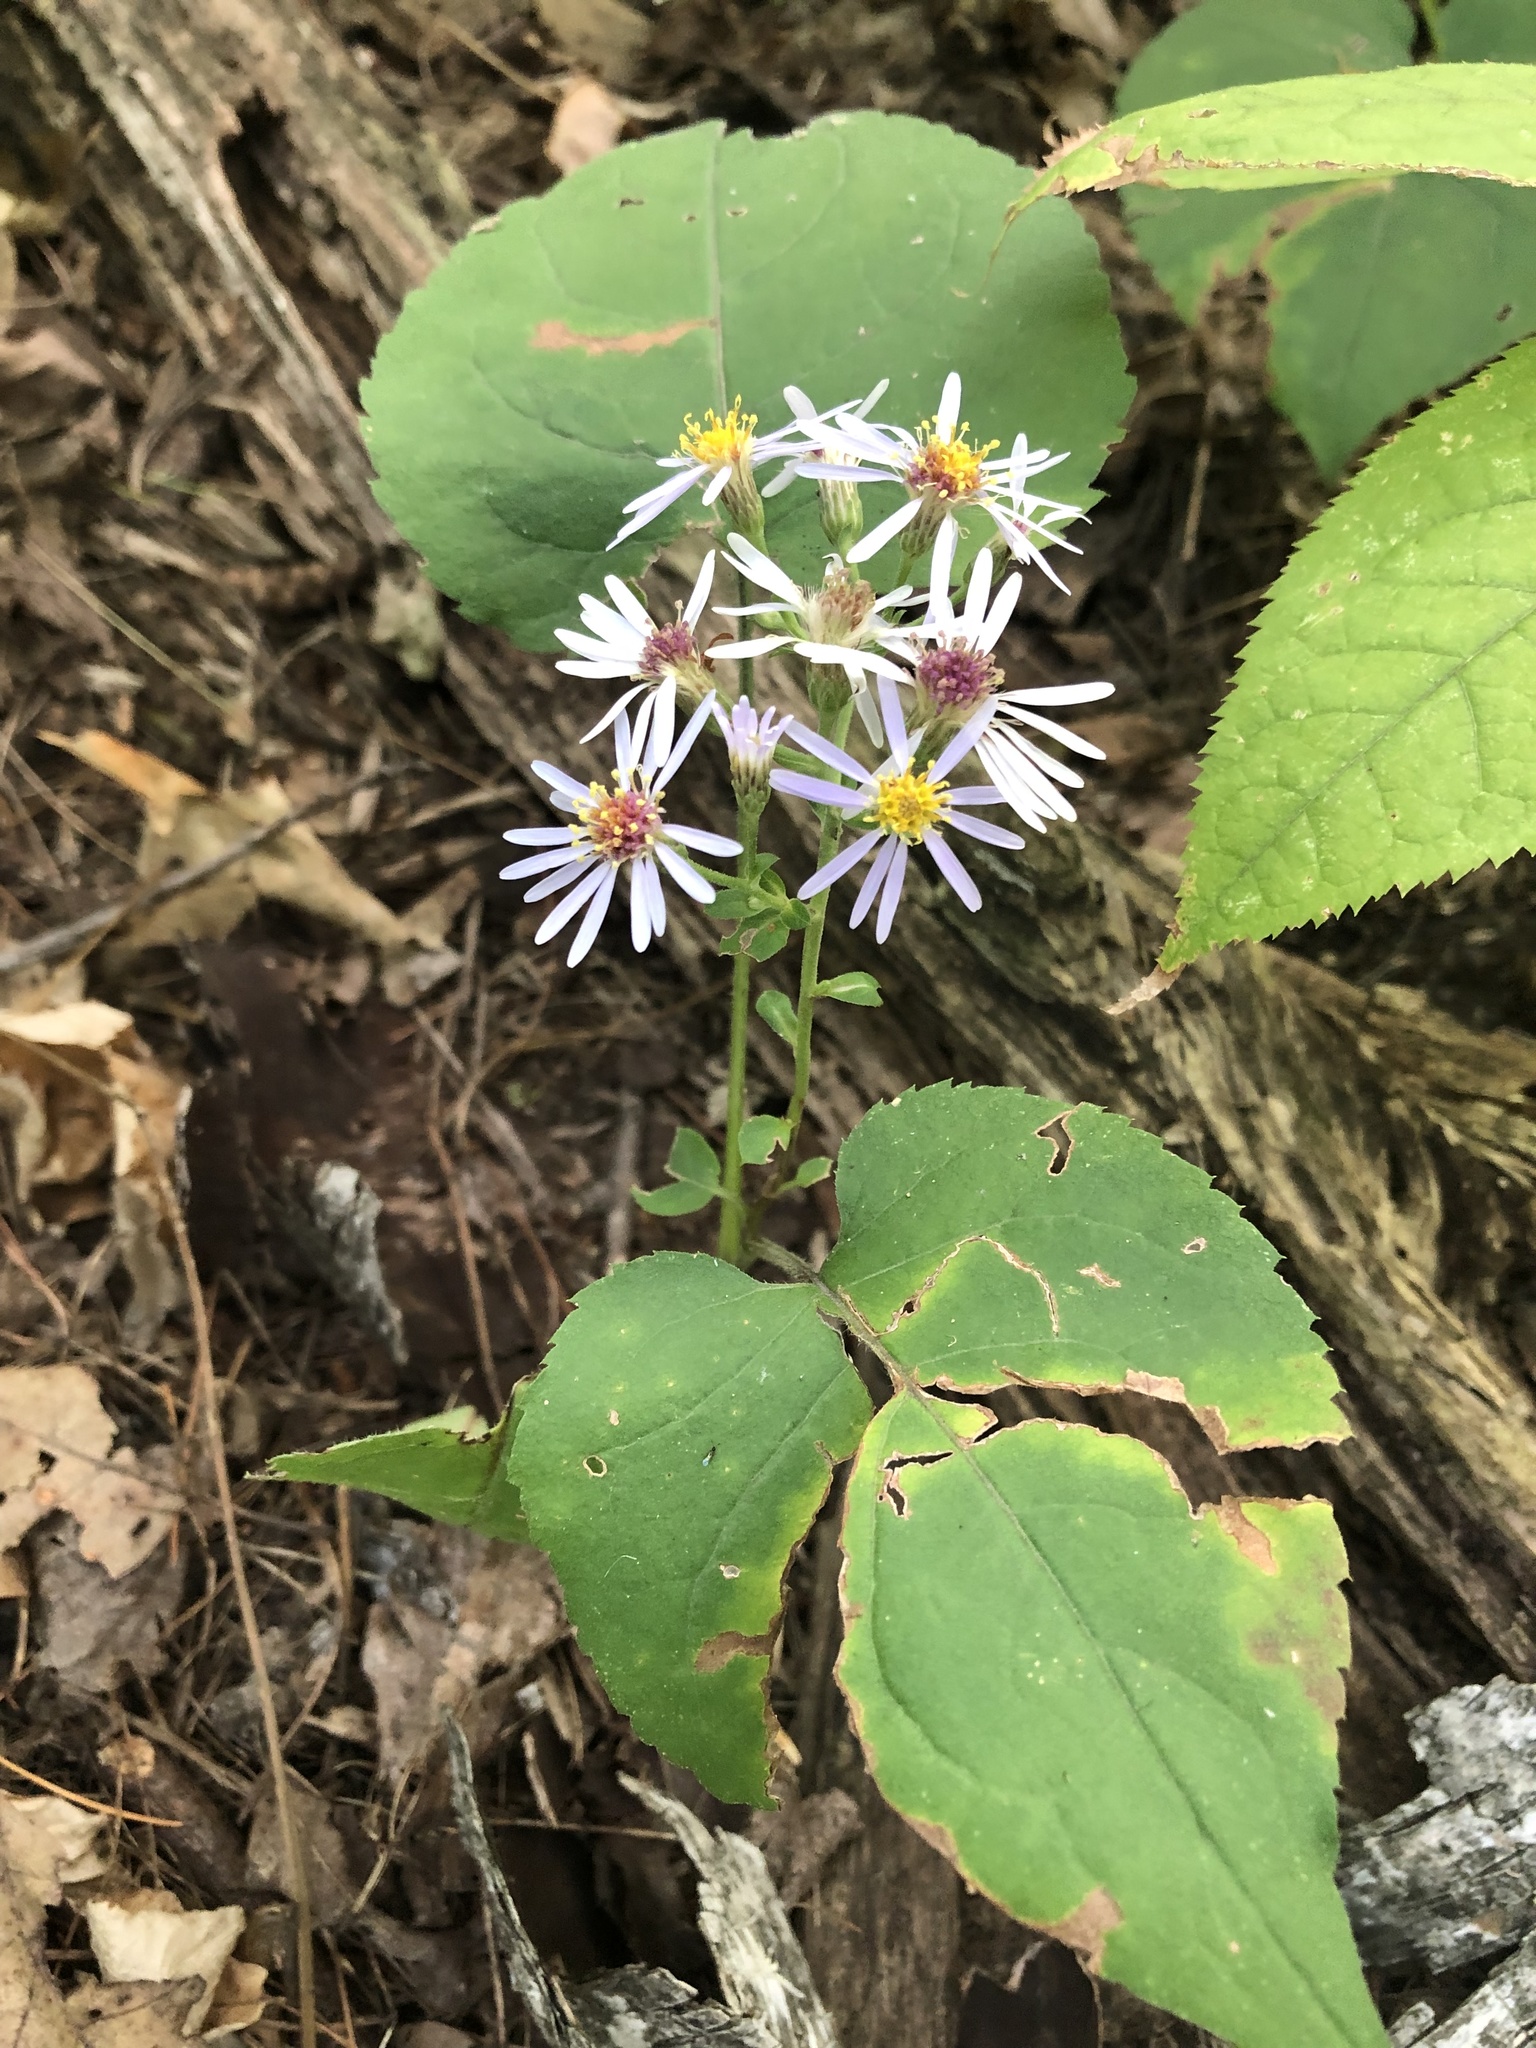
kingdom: Plantae
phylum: Tracheophyta
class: Magnoliopsida
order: Asterales
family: Asteraceae
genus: Eurybia
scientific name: Eurybia macrophylla
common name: Big-leaved aster
